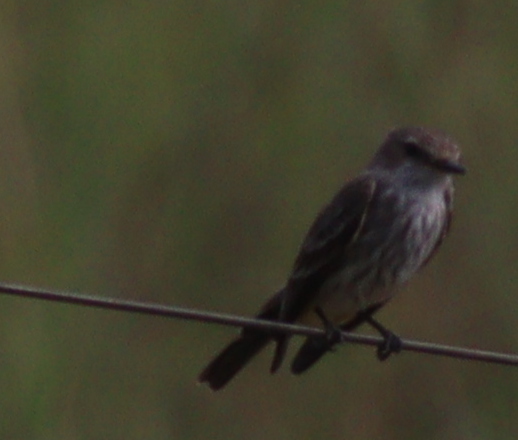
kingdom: Animalia
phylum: Chordata
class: Aves
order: Passeriformes
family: Tyrannidae
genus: Pyrocephalus
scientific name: Pyrocephalus rubinus
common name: Vermilion flycatcher
